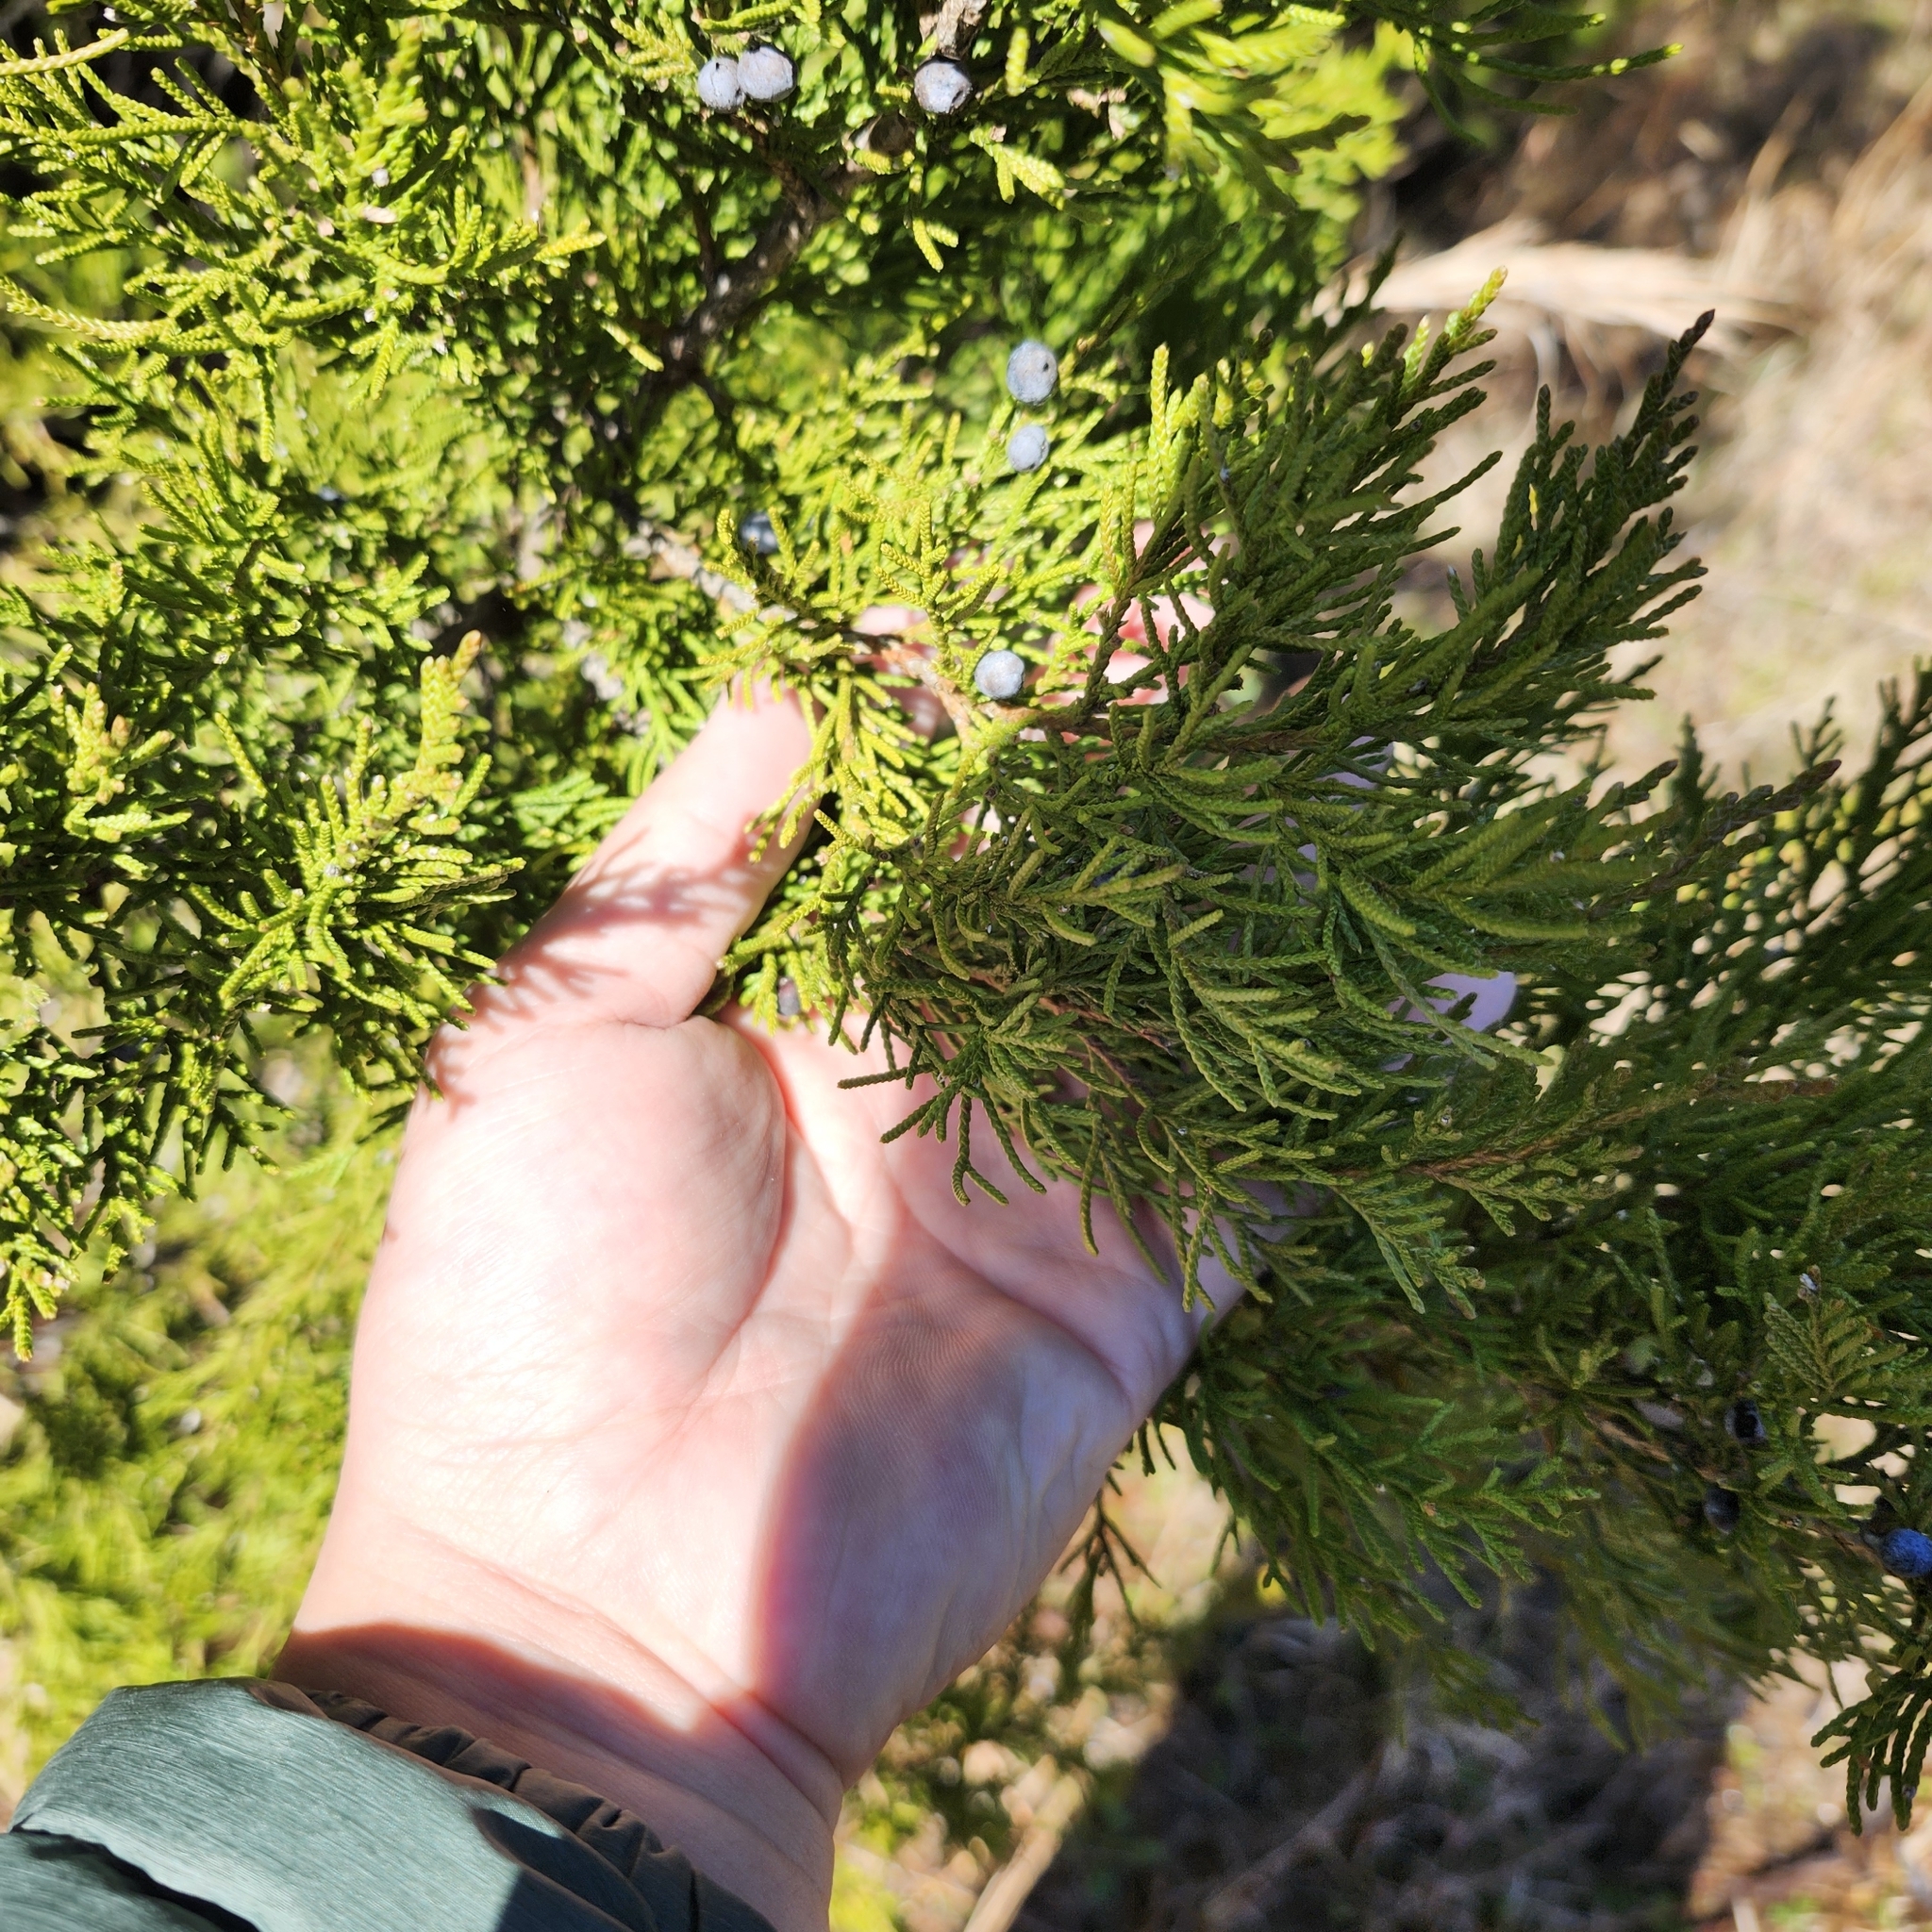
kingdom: Plantae
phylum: Tracheophyta
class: Pinopsida
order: Pinales
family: Cupressaceae
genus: Juniperus
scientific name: Juniperus virginiana
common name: Red juniper
